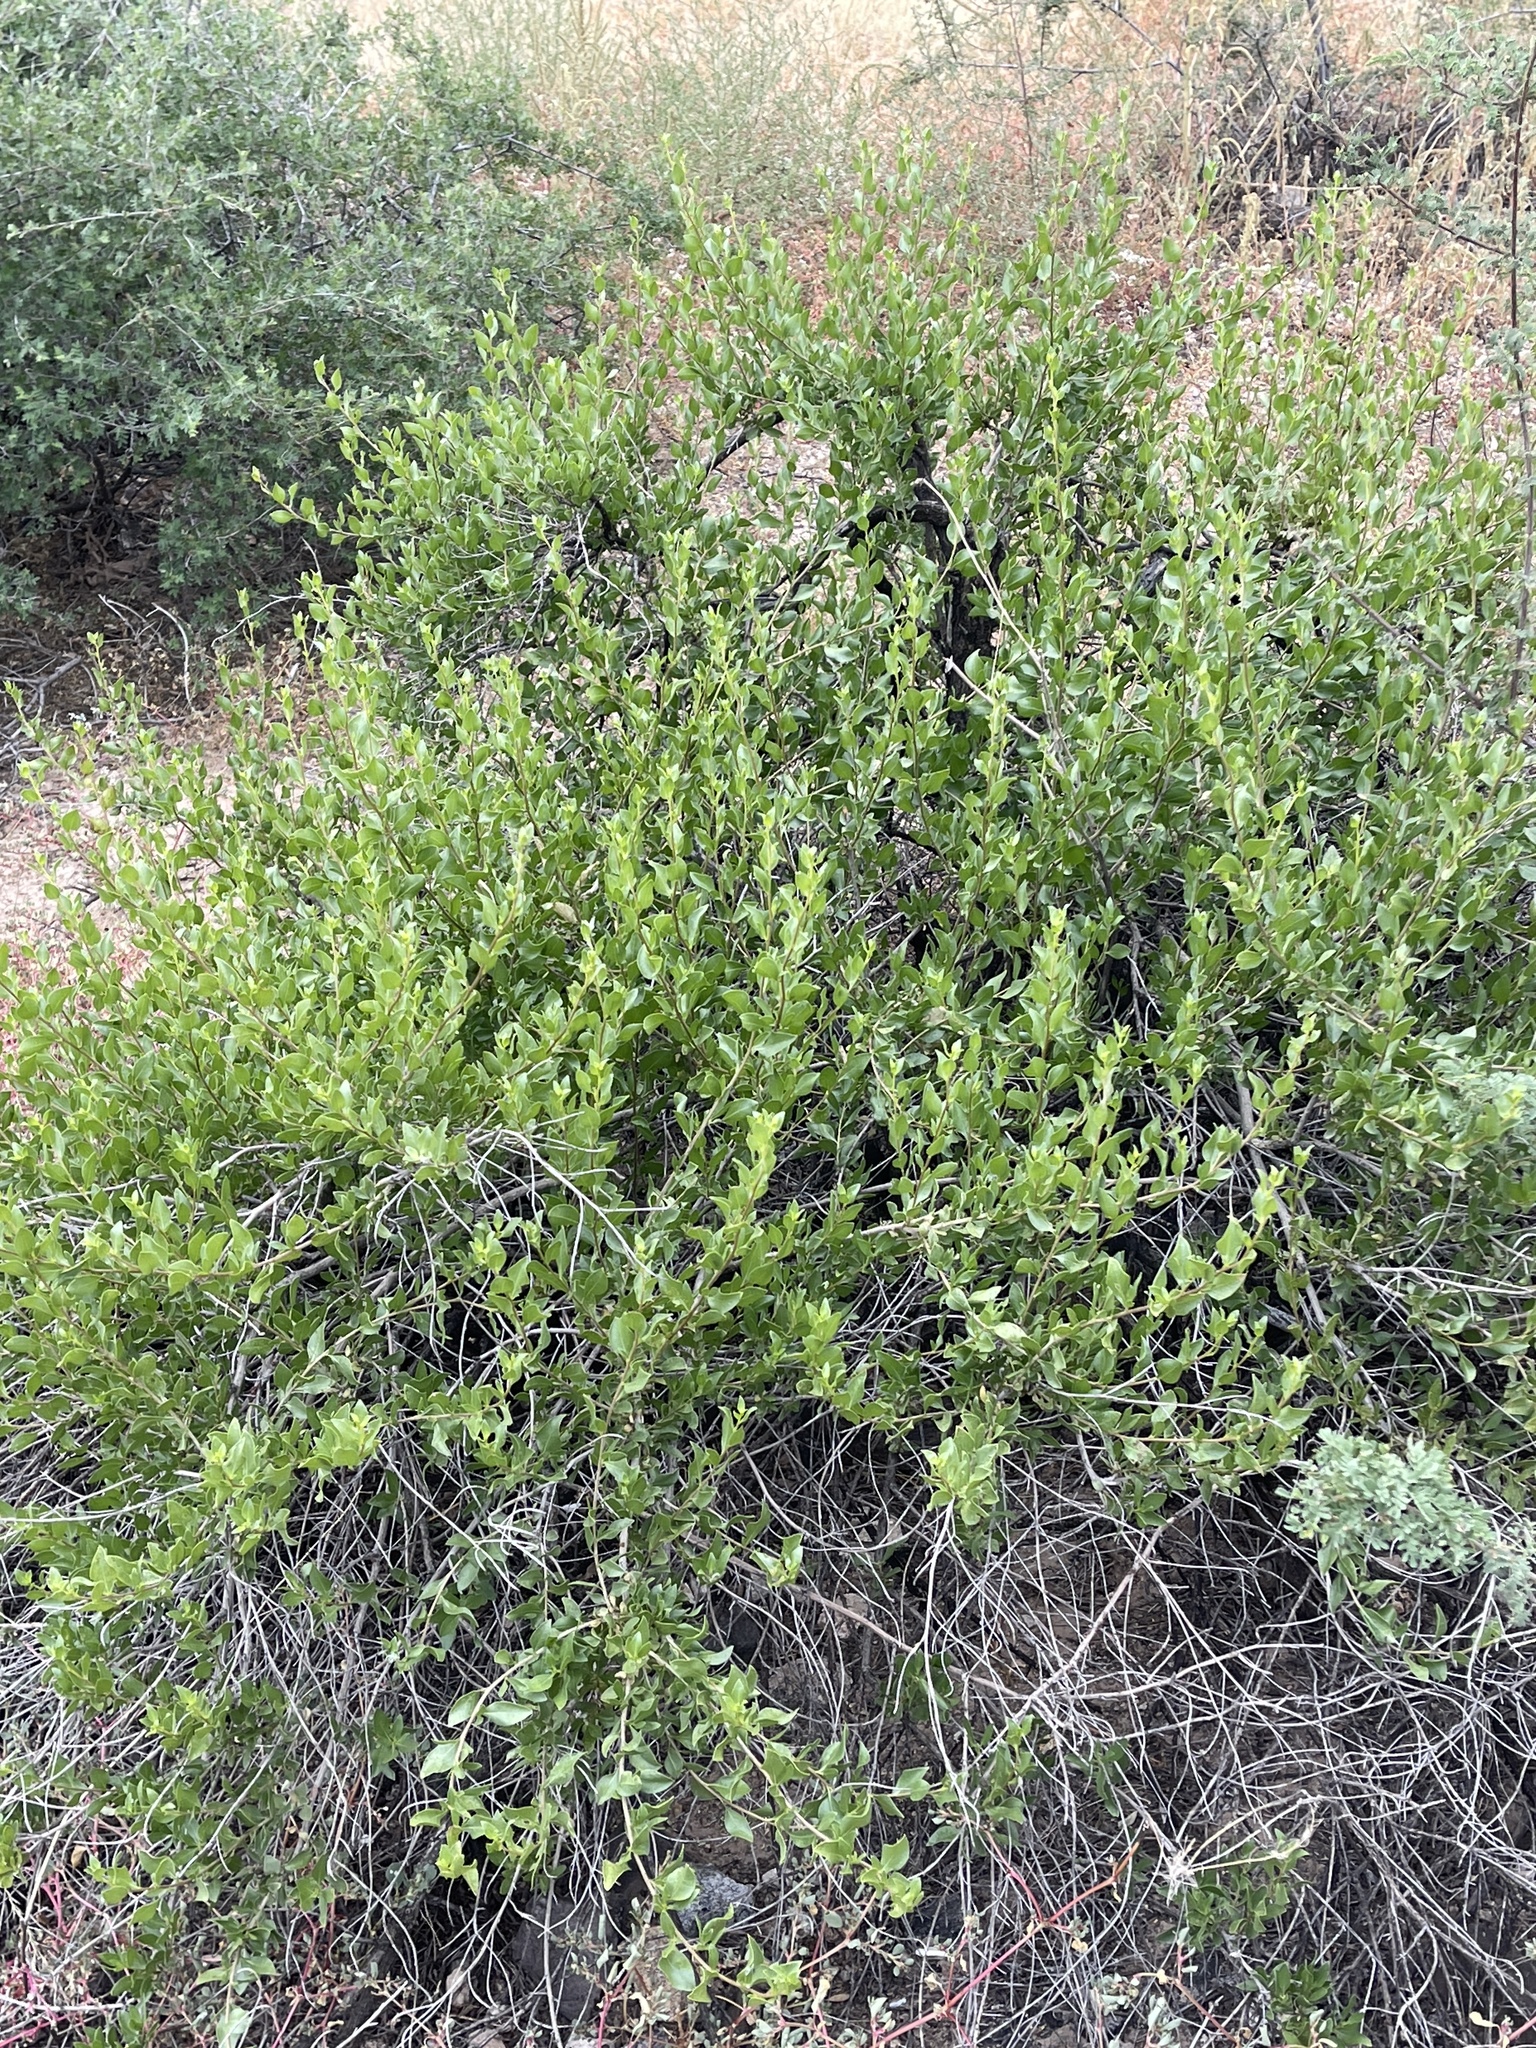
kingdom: Plantae
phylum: Tracheophyta
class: Magnoliopsida
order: Asterales
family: Asteraceae
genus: Flourensia
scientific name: Flourensia cernua
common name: Varnishbush
